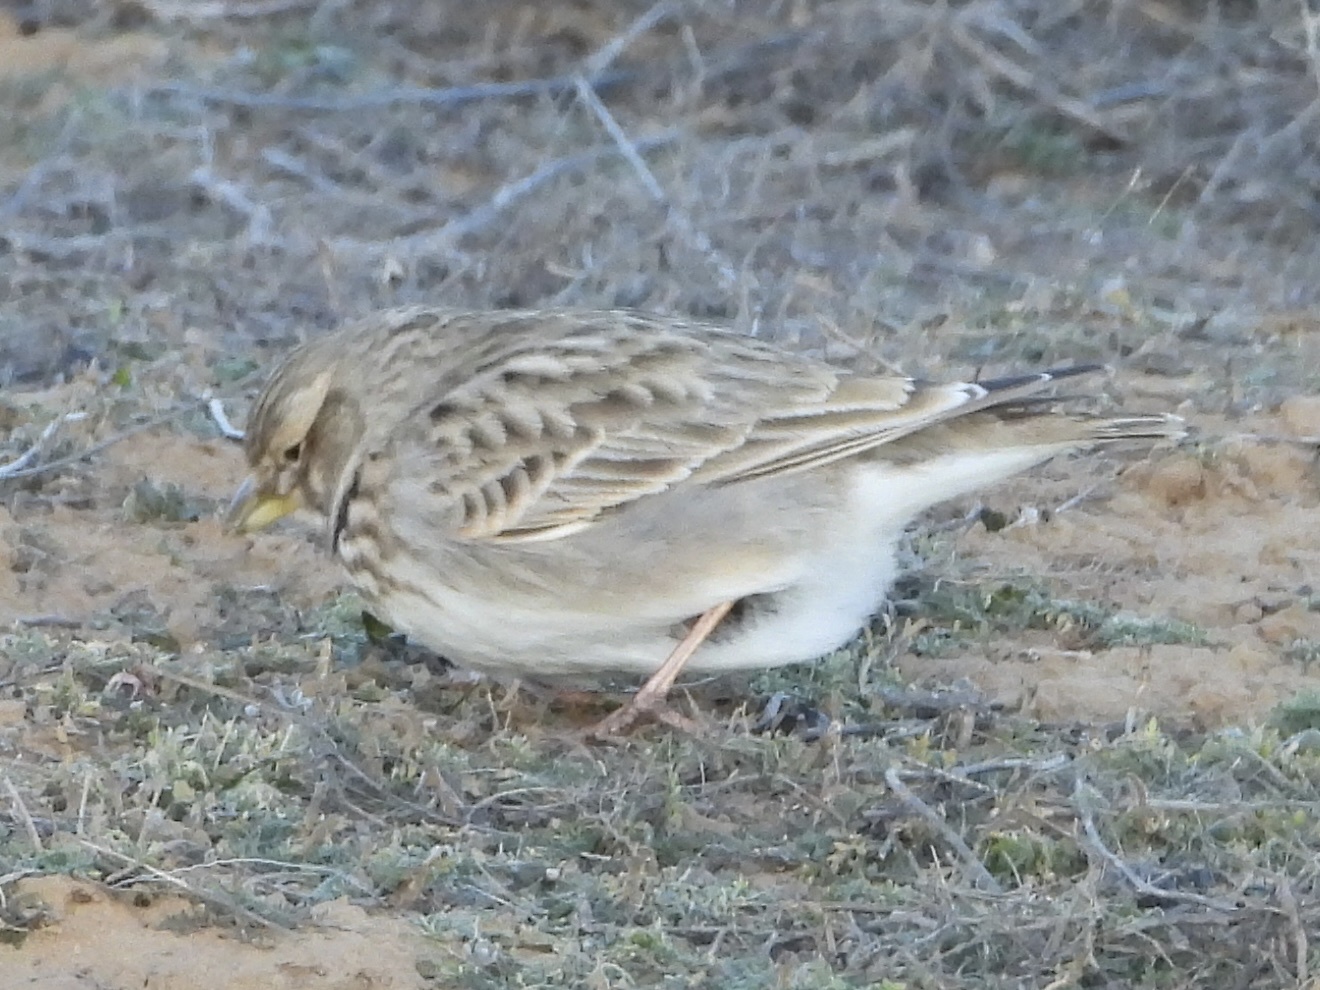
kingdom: Animalia
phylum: Chordata
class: Aves
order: Passeriformes
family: Alaudidae
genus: Melanocorypha
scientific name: Melanocorypha calandra
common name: Calandra lark
